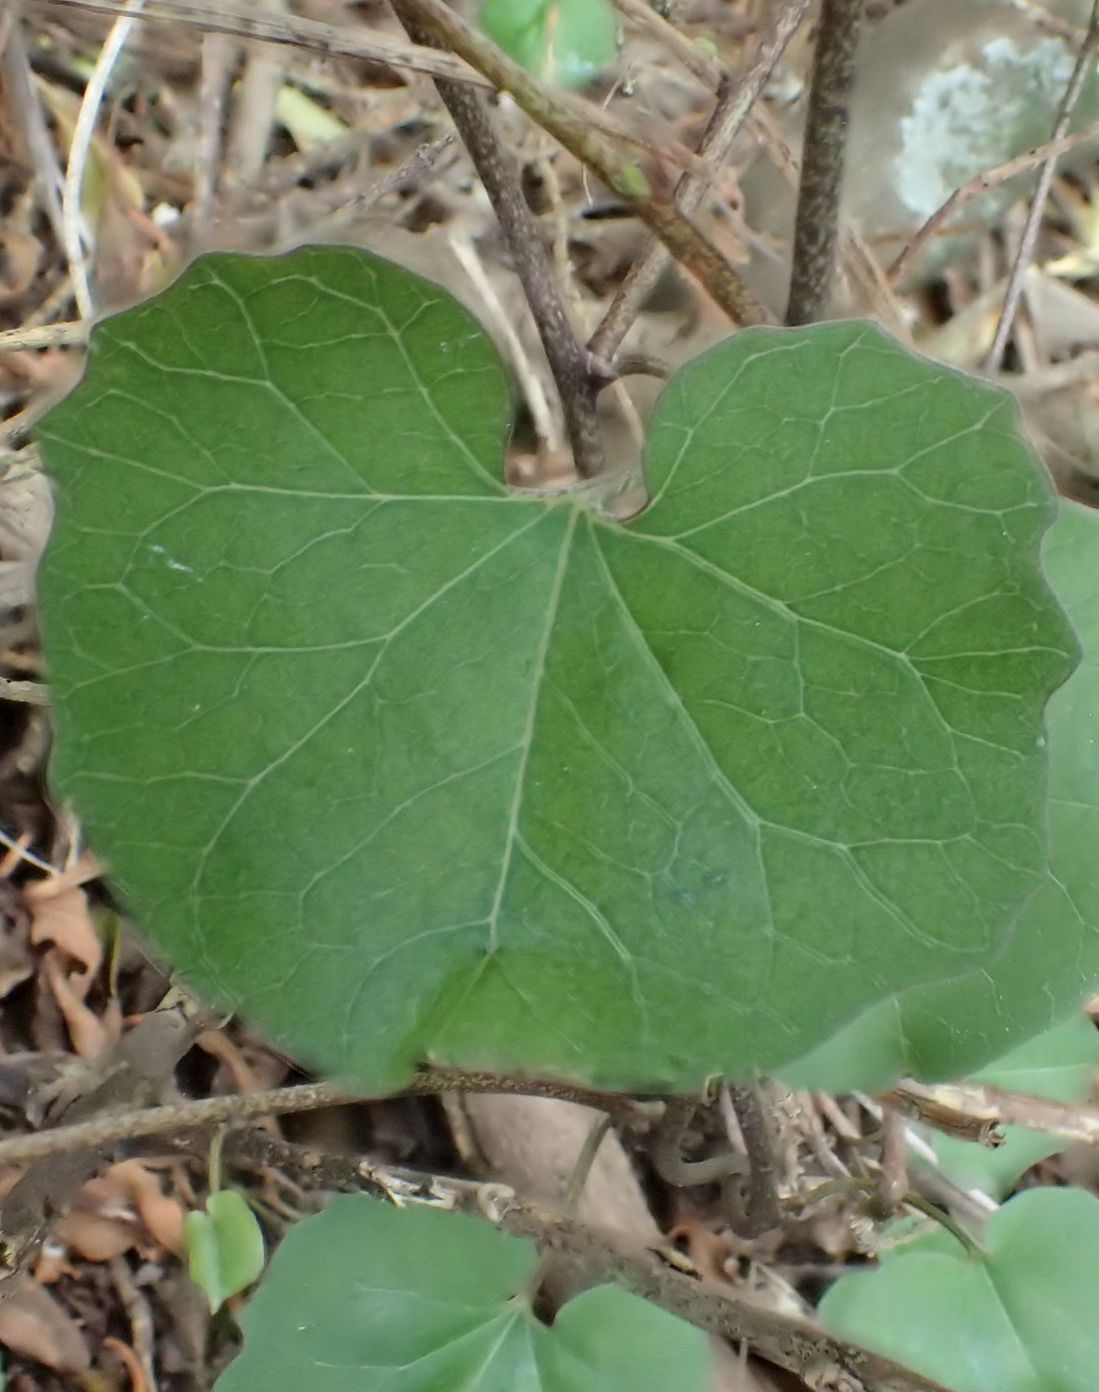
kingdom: Plantae
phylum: Tracheophyta
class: Magnoliopsida
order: Solanales
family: Convolvulaceae
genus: Calystegia
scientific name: Calystegia tuguriorum
